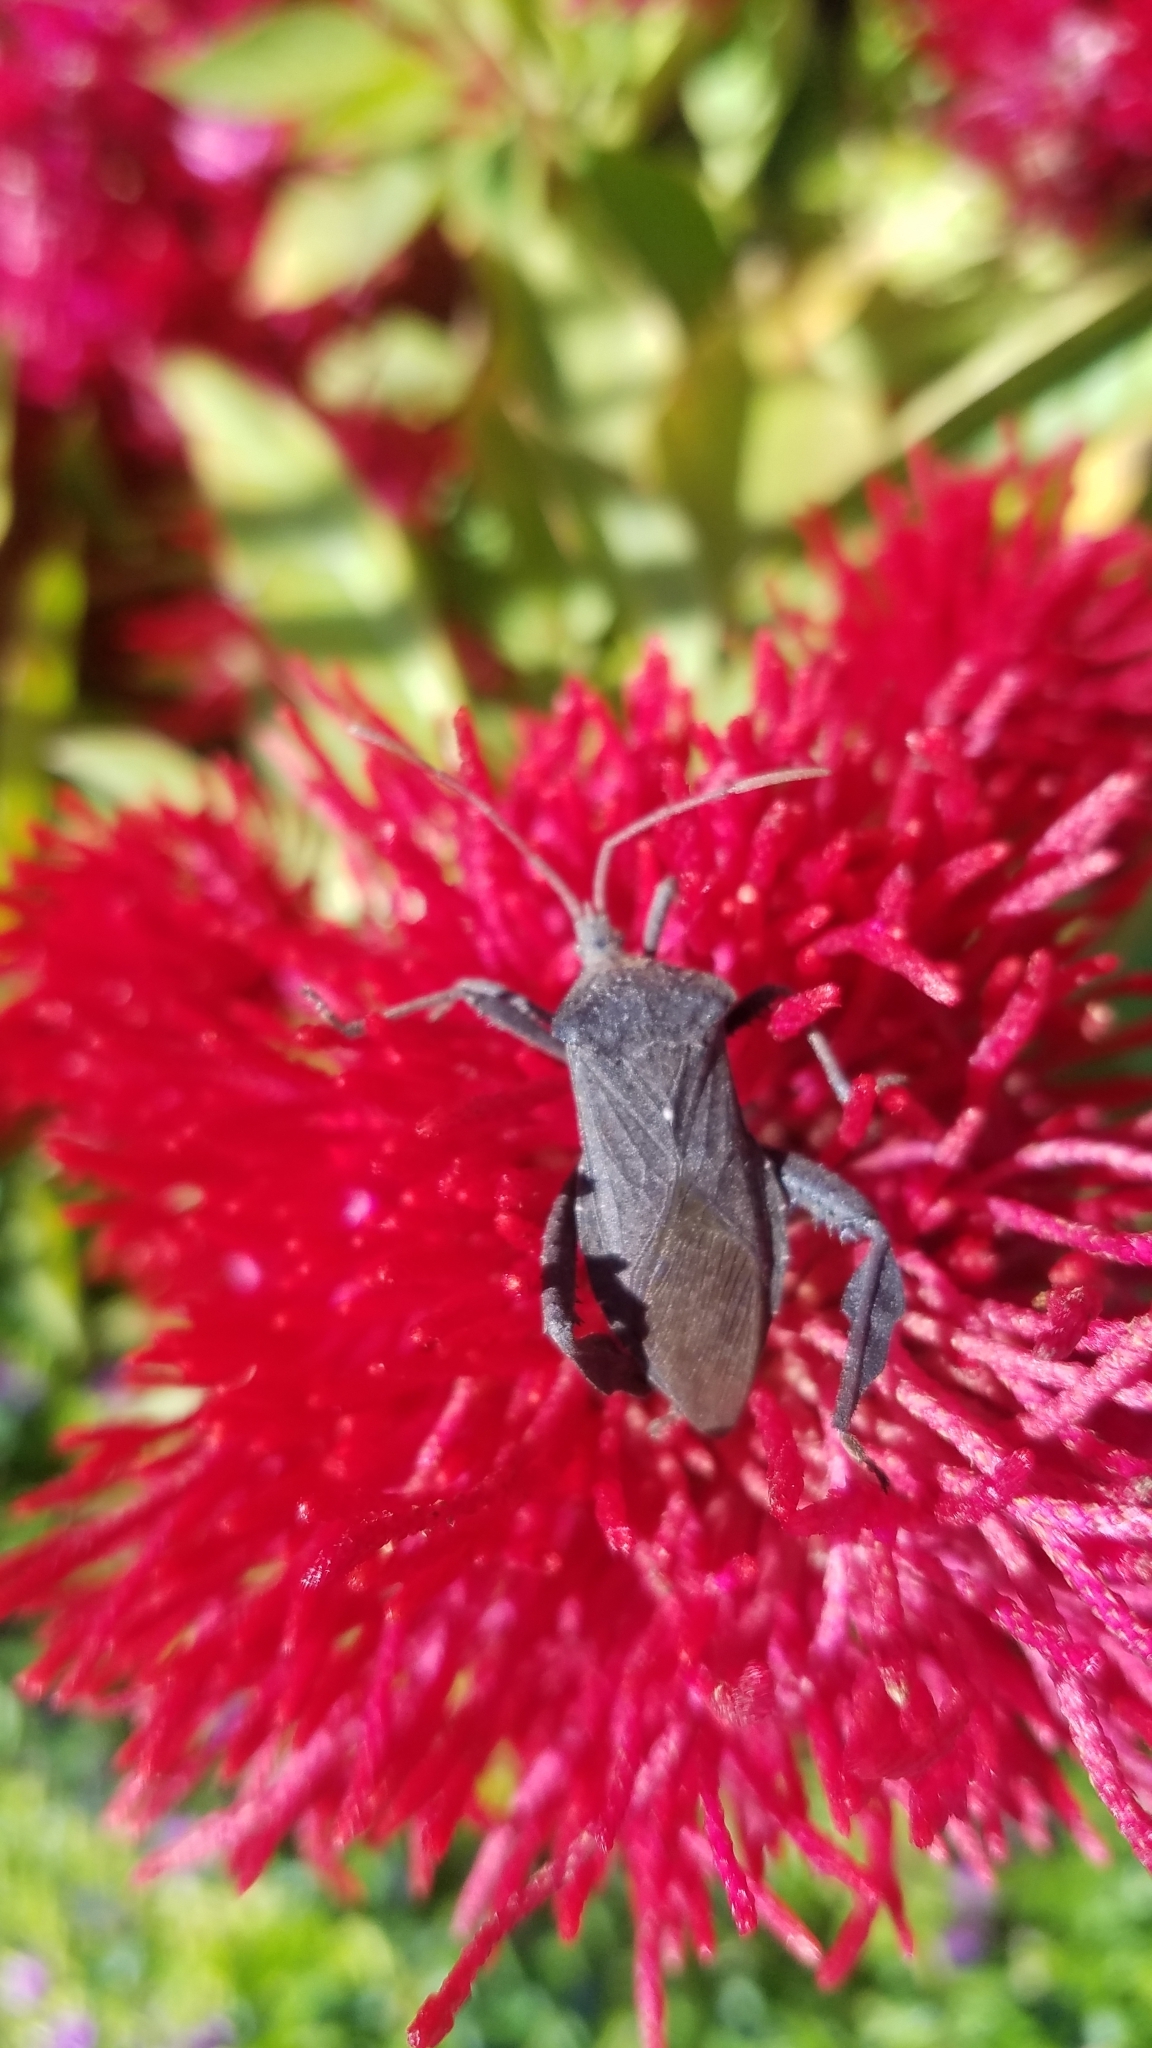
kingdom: Animalia
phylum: Arthropoda
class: Insecta
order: Hemiptera
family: Coreidae
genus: Acanthocephala
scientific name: Acanthocephala femorata
